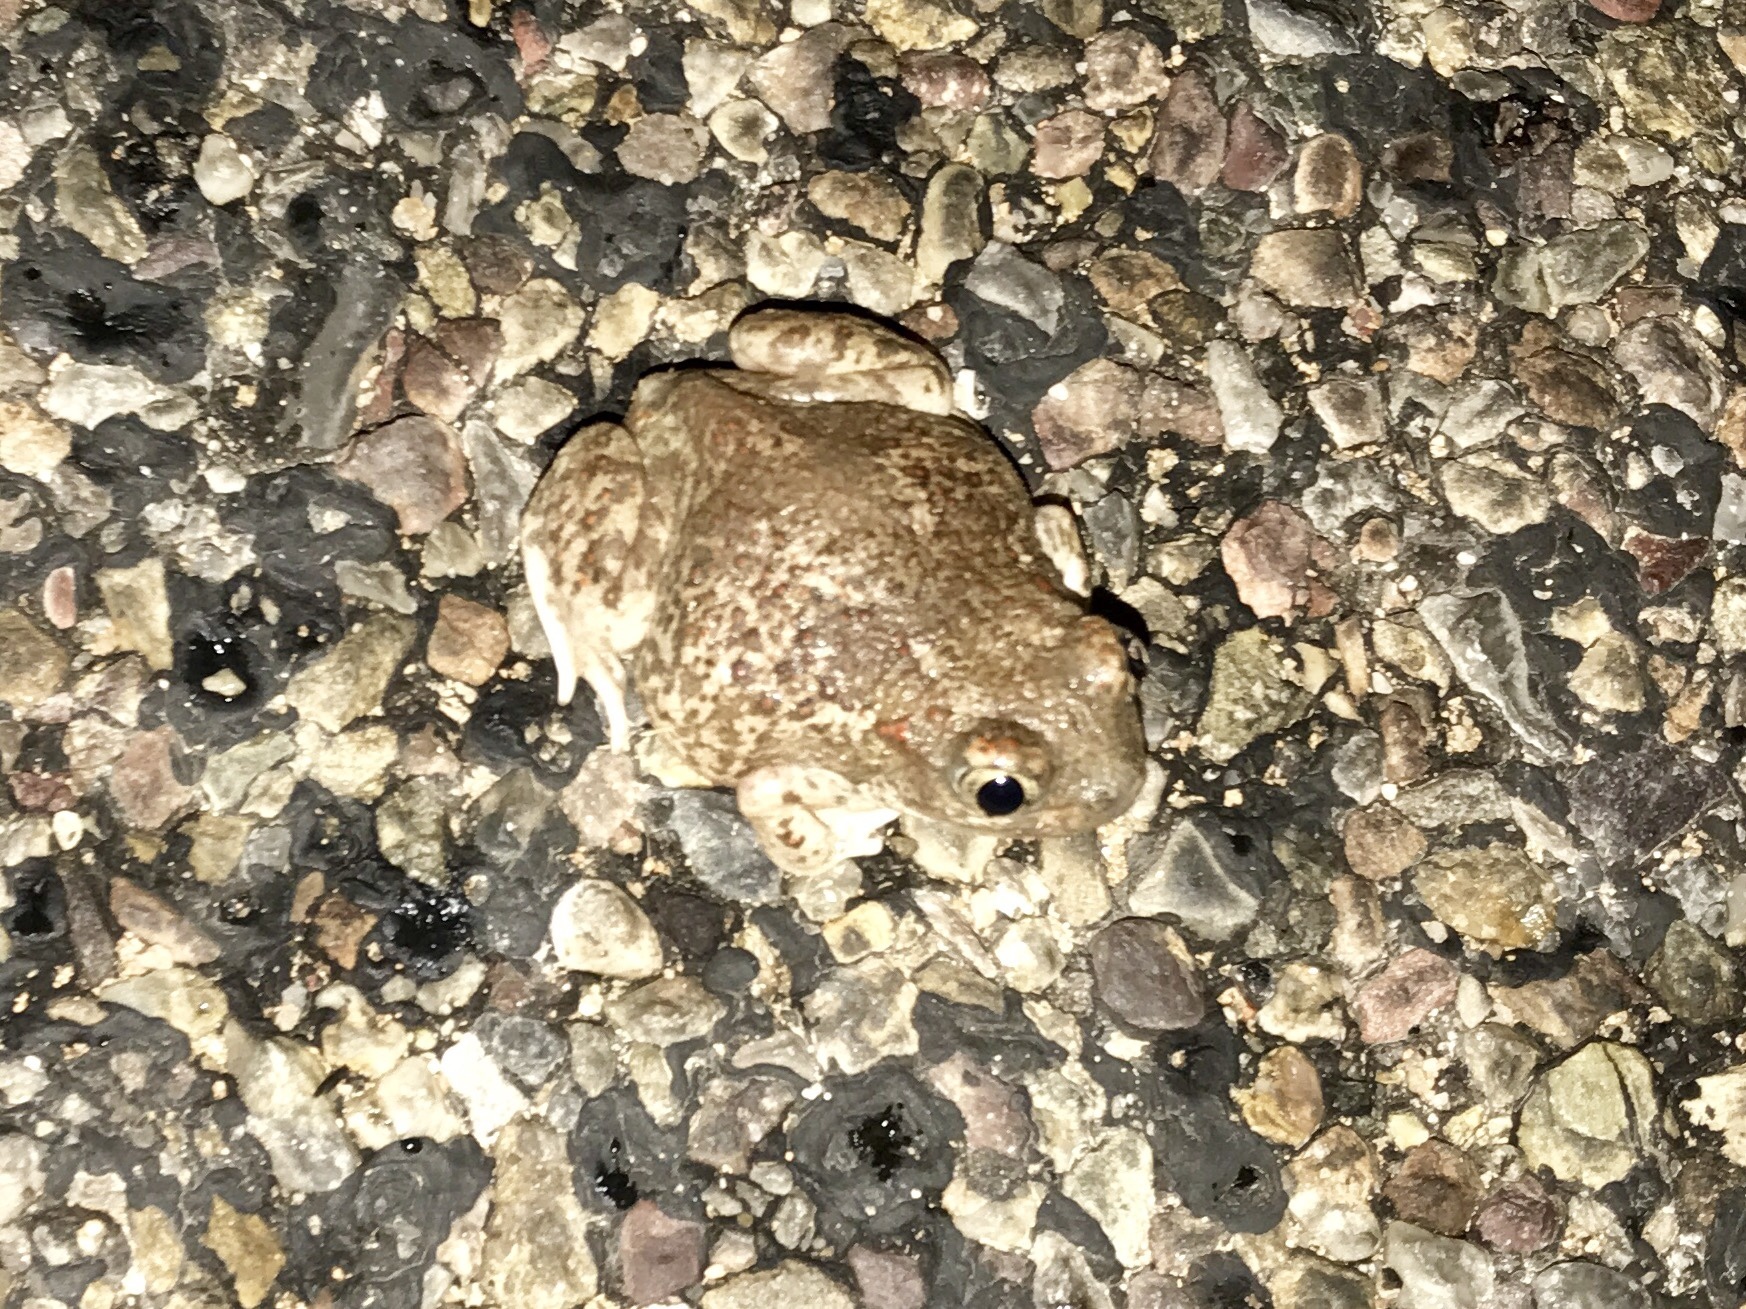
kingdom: Animalia
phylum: Chordata
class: Amphibia
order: Anura
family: Scaphiopodidae
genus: Spea
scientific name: Spea multiplicata
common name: Mexican spadefoot
